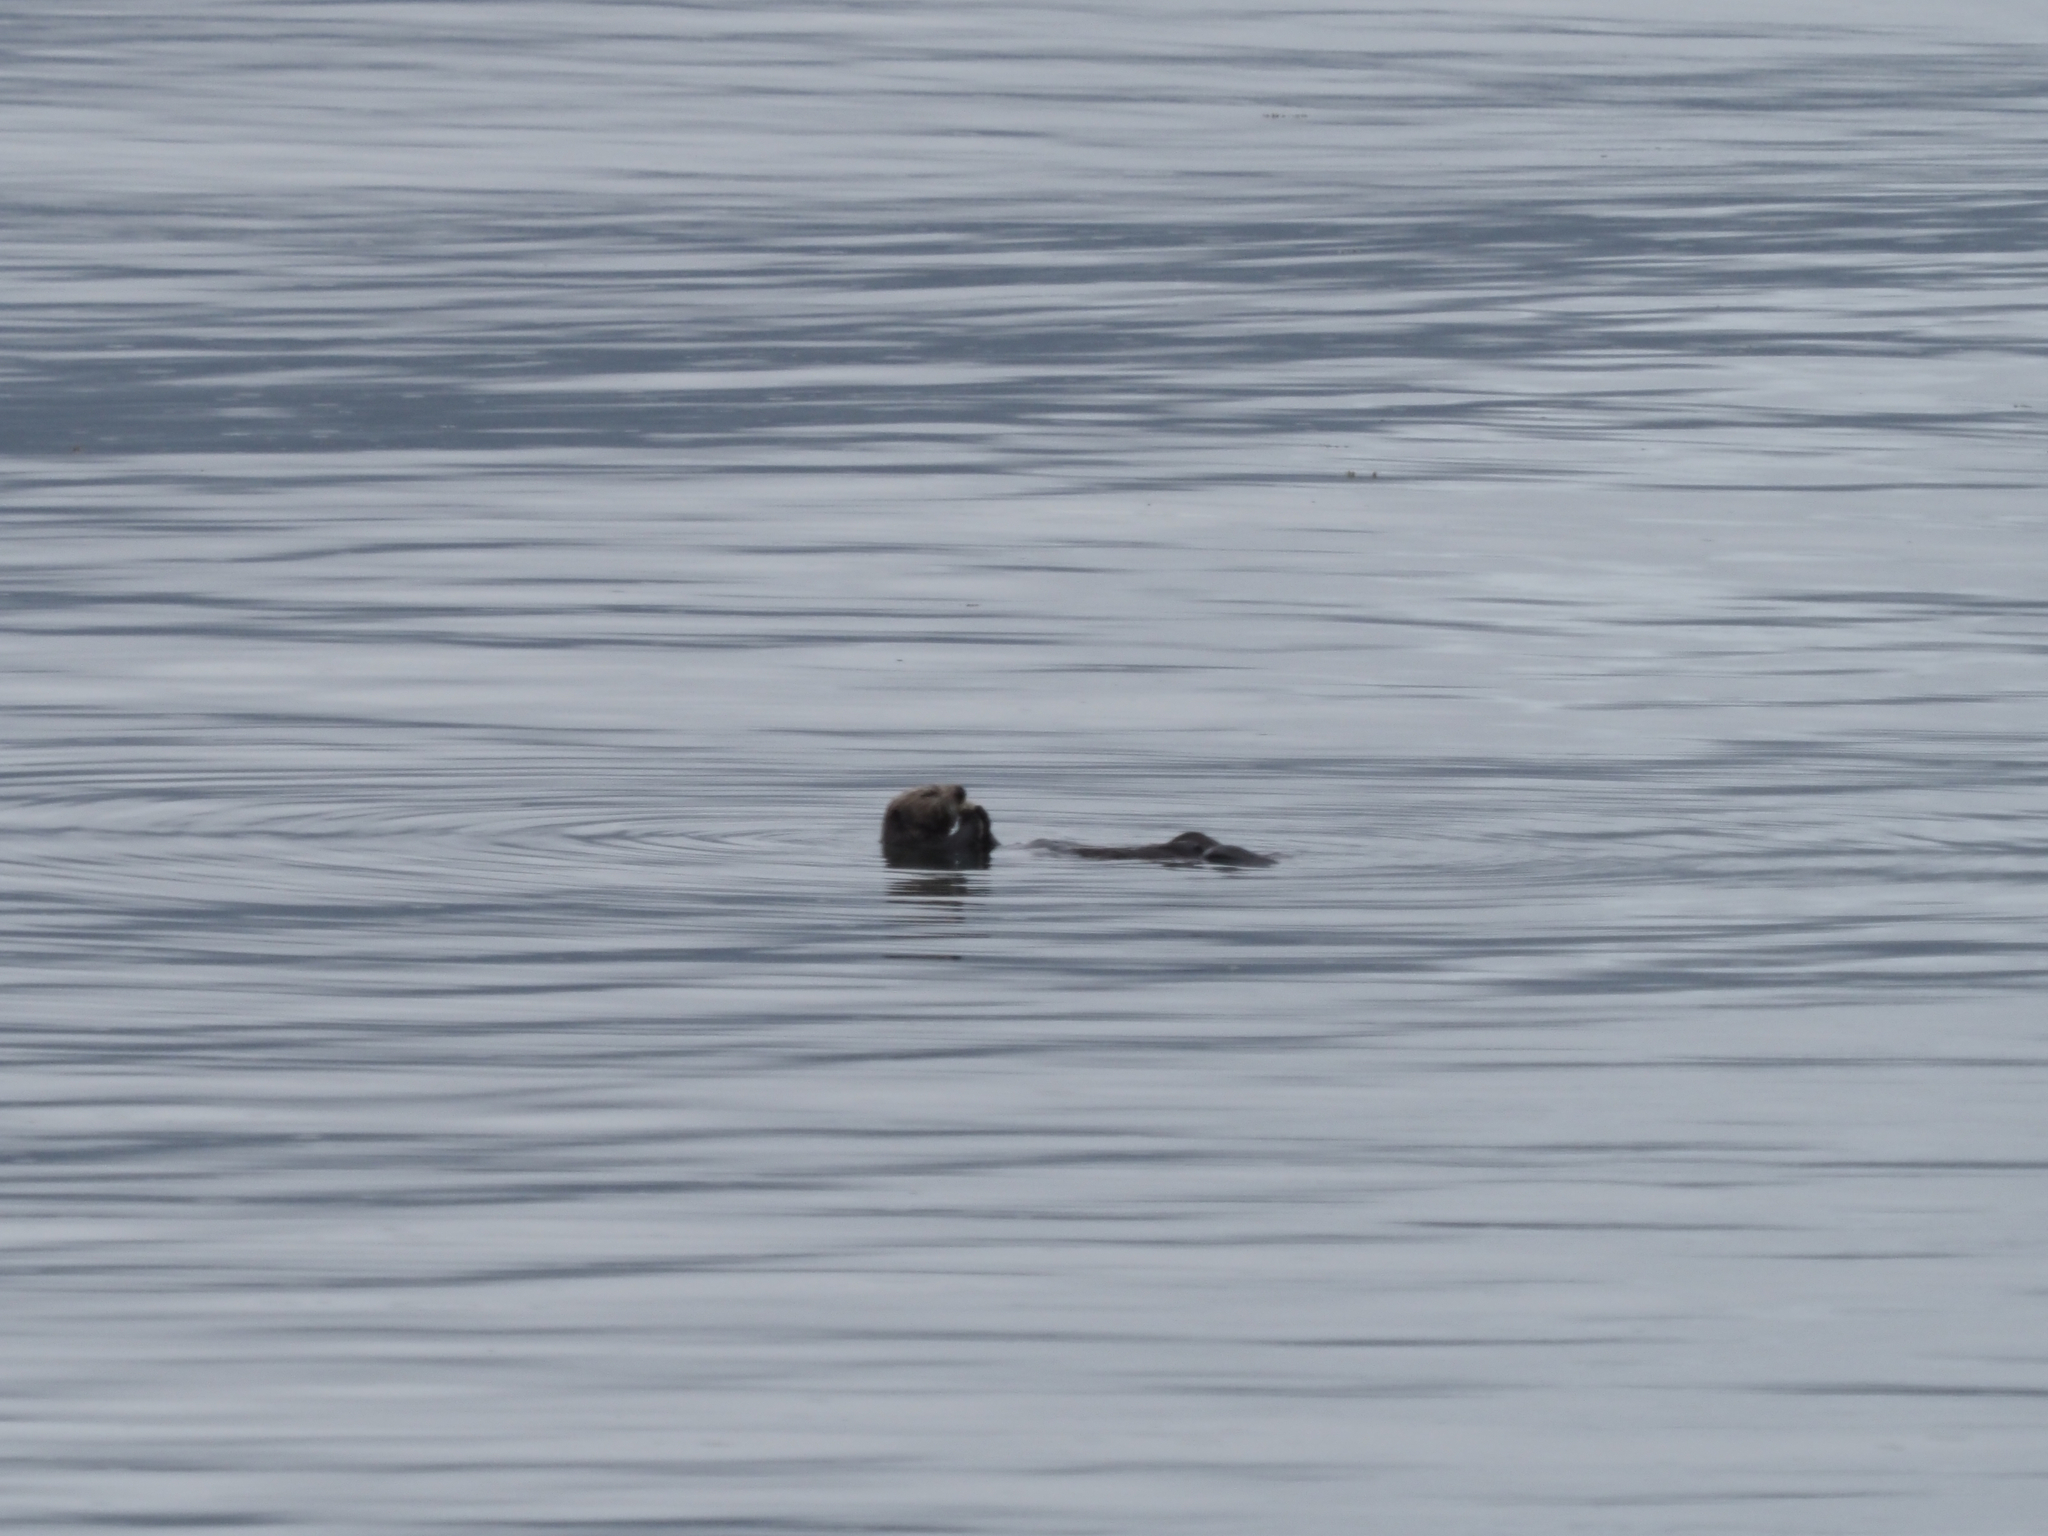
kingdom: Animalia
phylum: Chordata
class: Mammalia
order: Carnivora
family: Mustelidae
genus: Enhydra
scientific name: Enhydra lutris
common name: Sea otter
